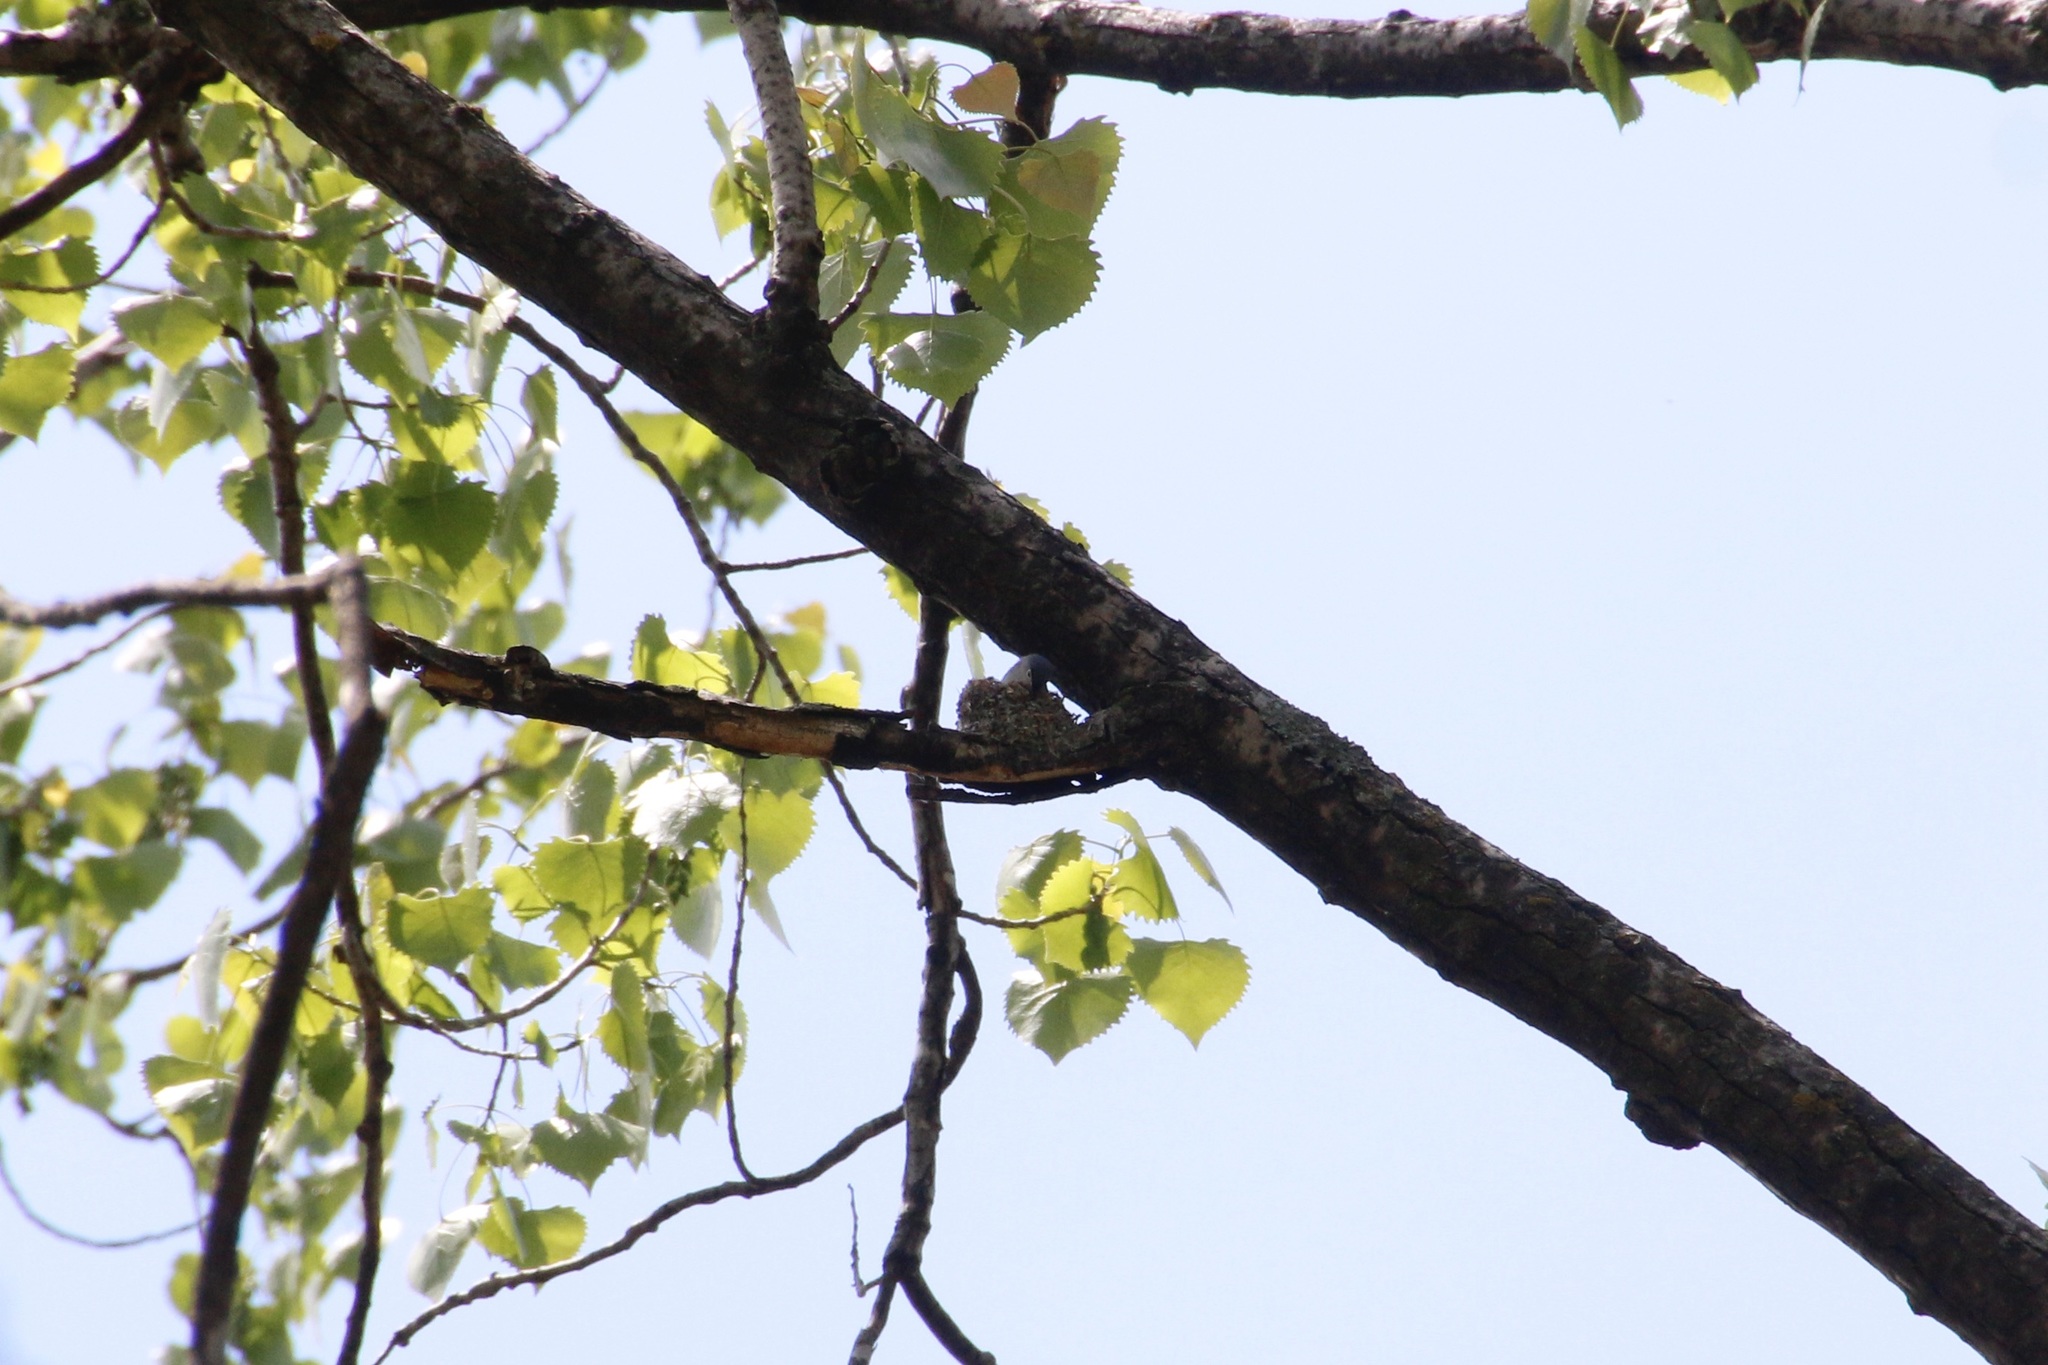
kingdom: Animalia
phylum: Chordata
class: Aves
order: Passeriformes
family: Polioptilidae
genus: Polioptila
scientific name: Polioptila caerulea
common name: Blue-gray gnatcatcher
